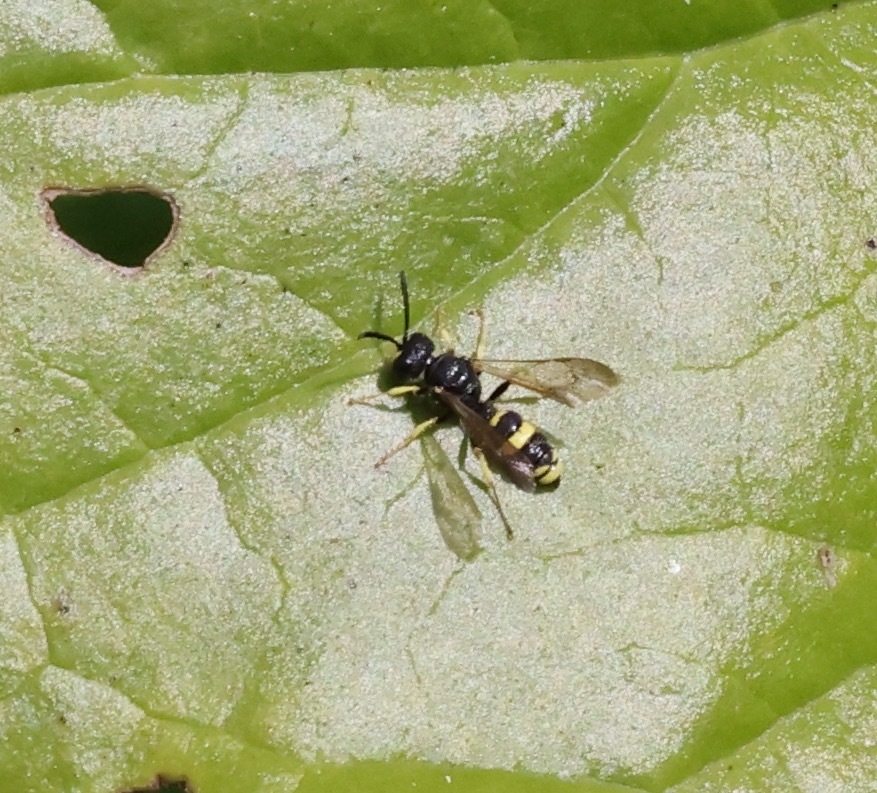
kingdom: Animalia
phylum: Arthropoda
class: Insecta
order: Hymenoptera
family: Crabronidae
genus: Cerceris
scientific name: Cerceris rybyensis
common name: Ornate tailed digger wasp
